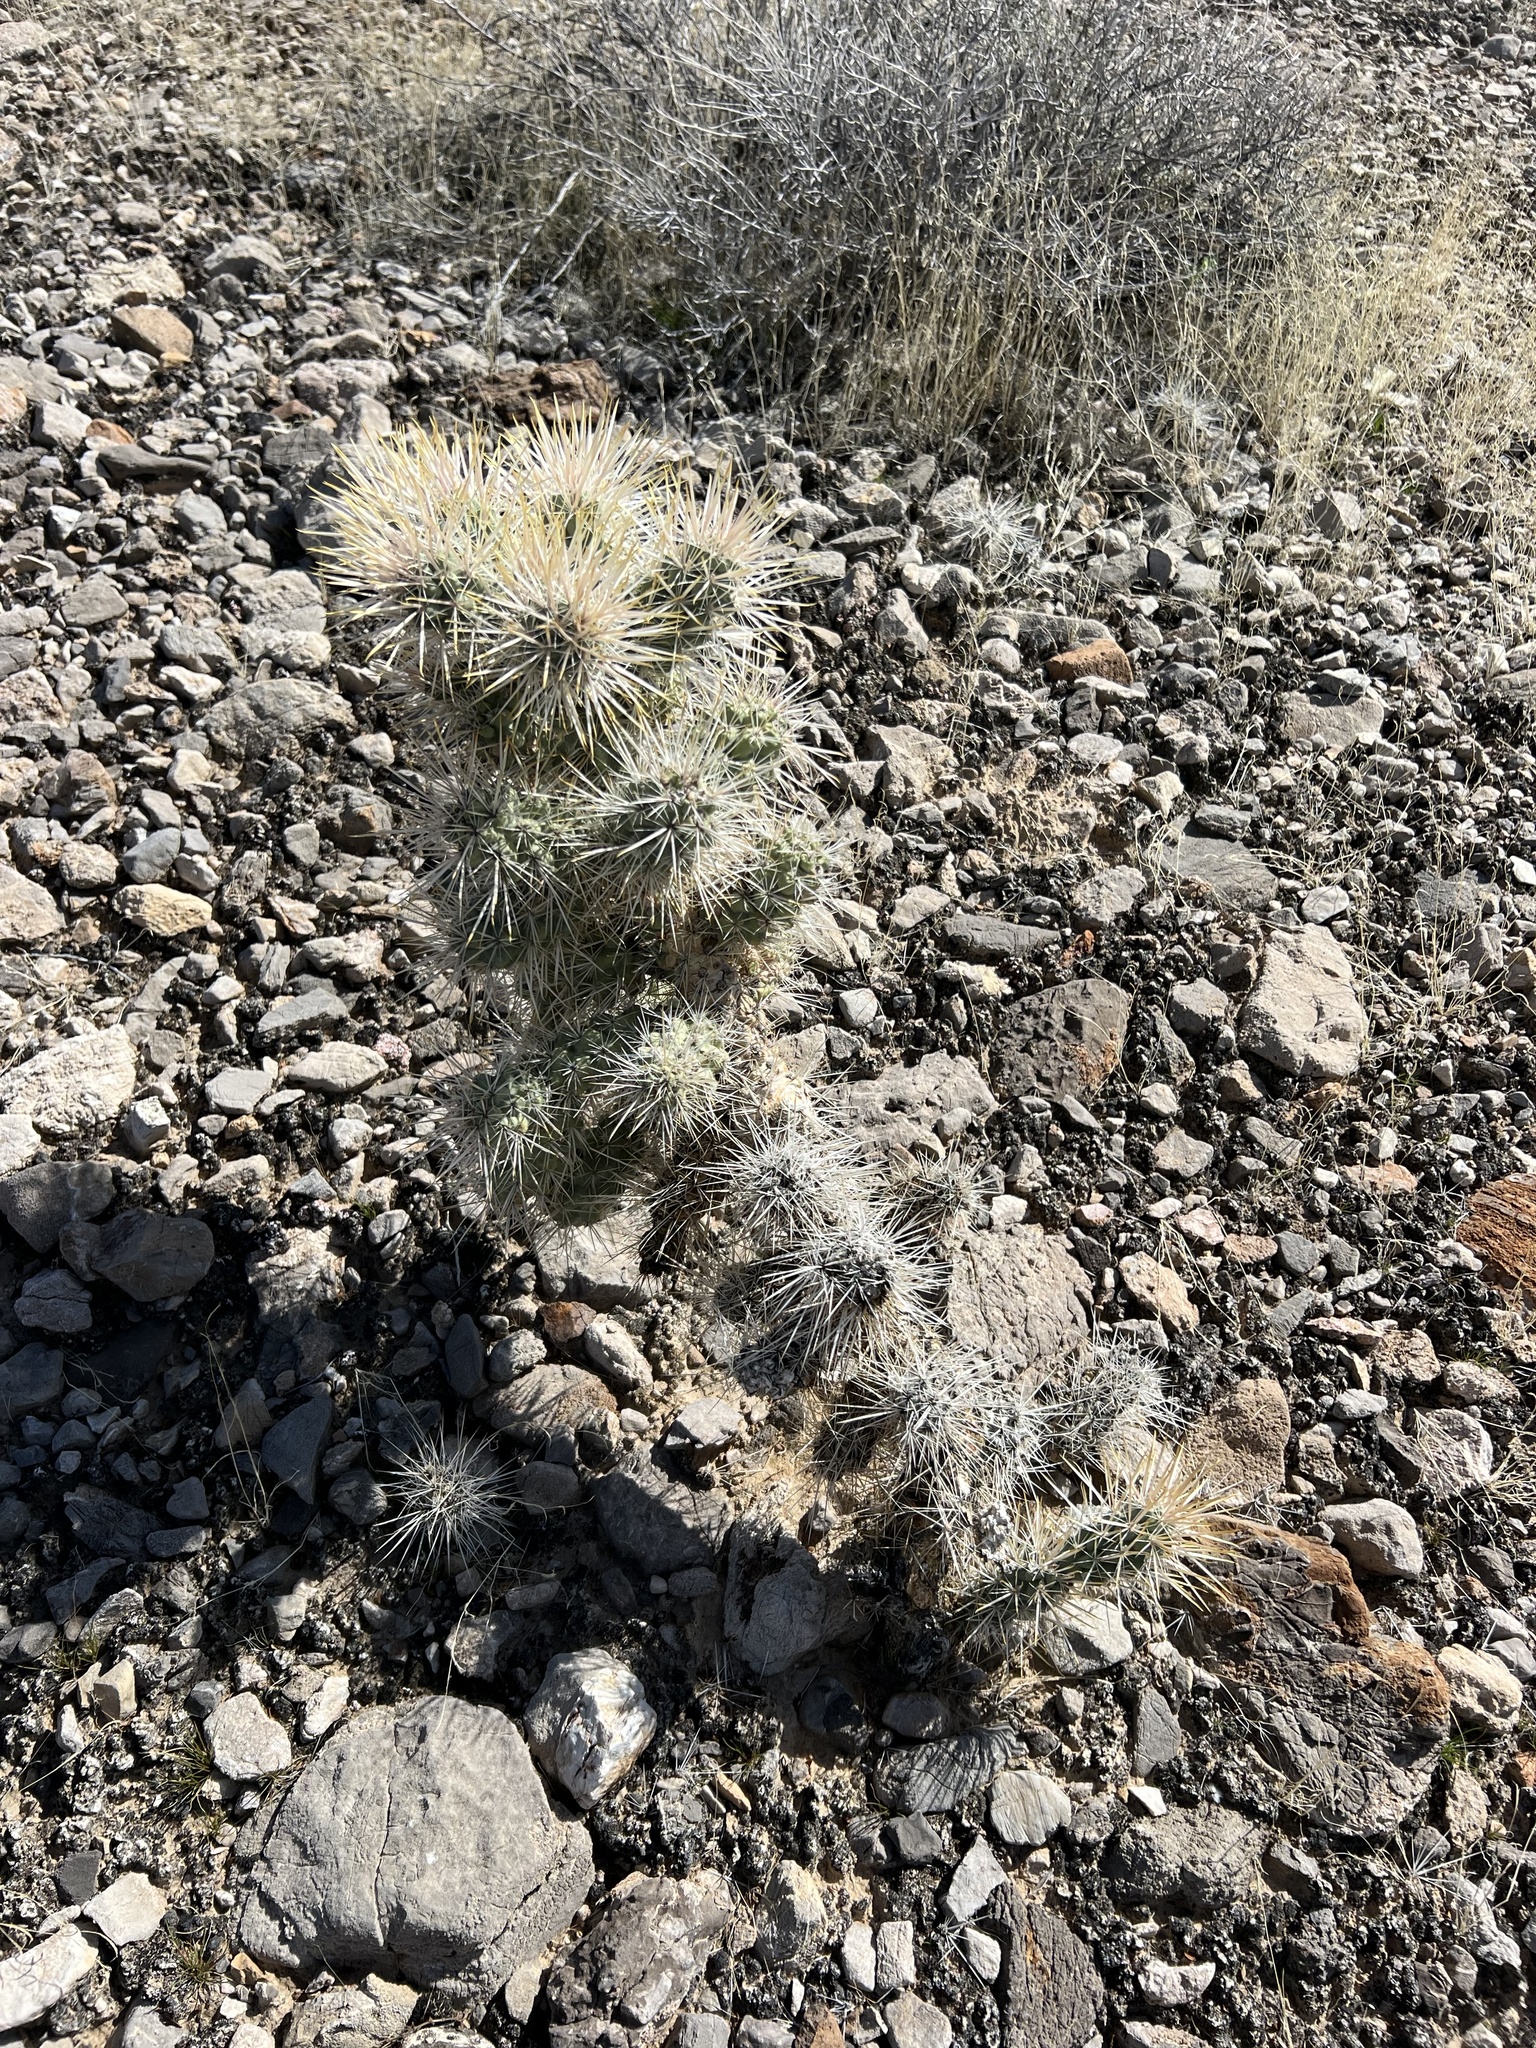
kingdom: Plantae
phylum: Tracheophyta
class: Magnoliopsida
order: Caryophyllales
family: Cactaceae
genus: Cylindropuntia
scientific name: Cylindropuntia echinocarpa
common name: Ground cholla
